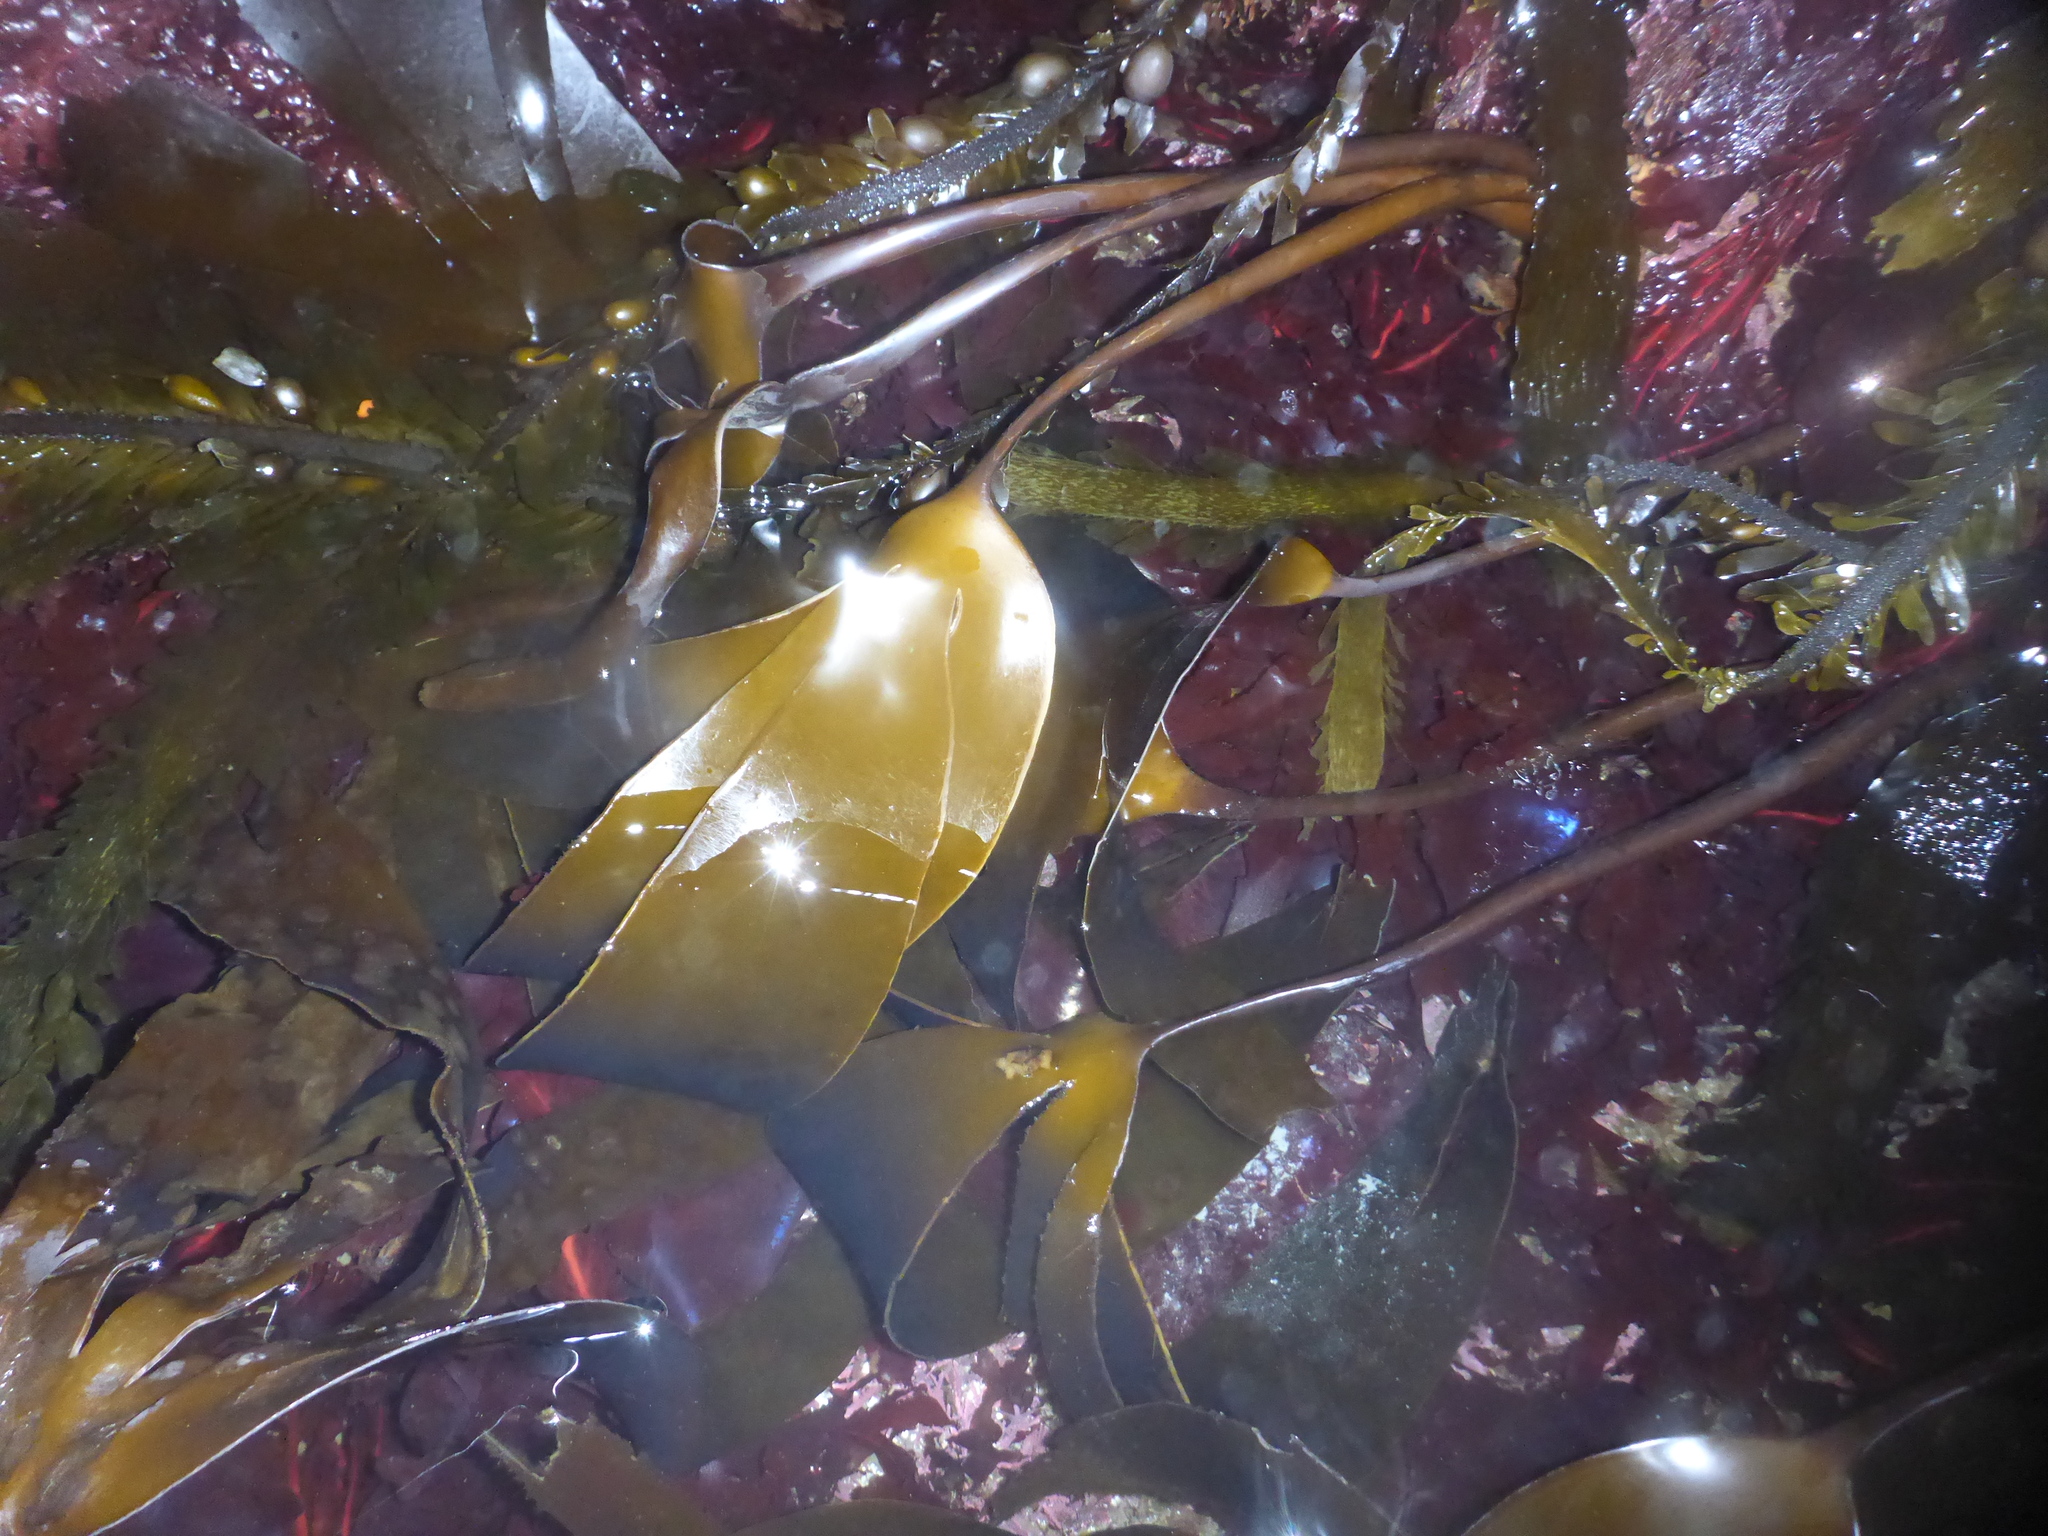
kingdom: Chromista
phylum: Ochrophyta
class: Phaeophyceae
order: Laminariales
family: Laminariaceae
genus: Laminaria
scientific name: Laminaria setchellii
